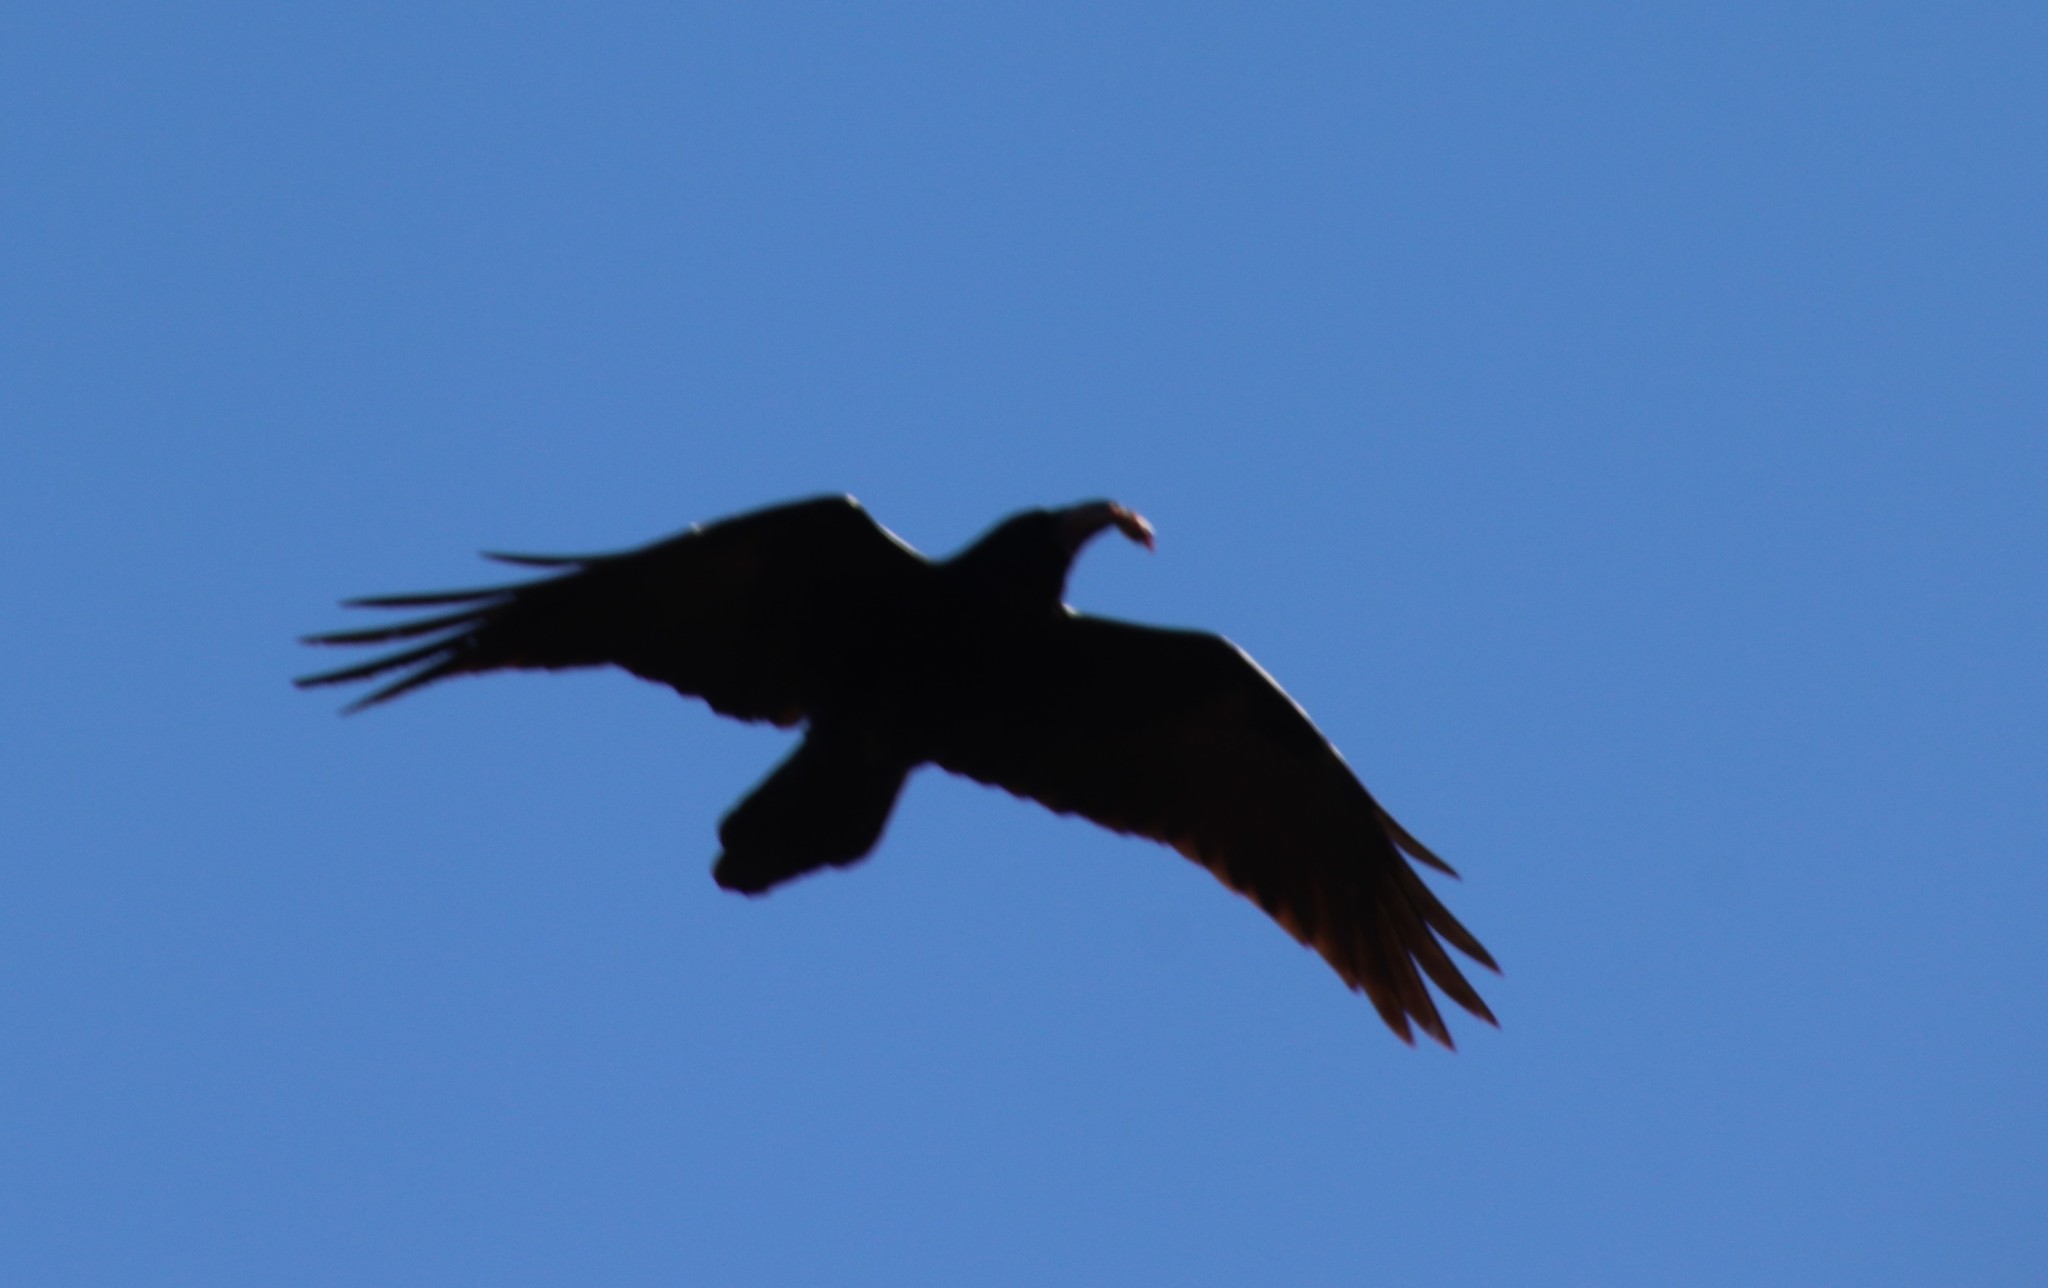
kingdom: Animalia
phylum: Chordata
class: Aves
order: Passeriformes
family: Corvidae
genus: Corvus
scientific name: Corvus corax
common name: Common raven
